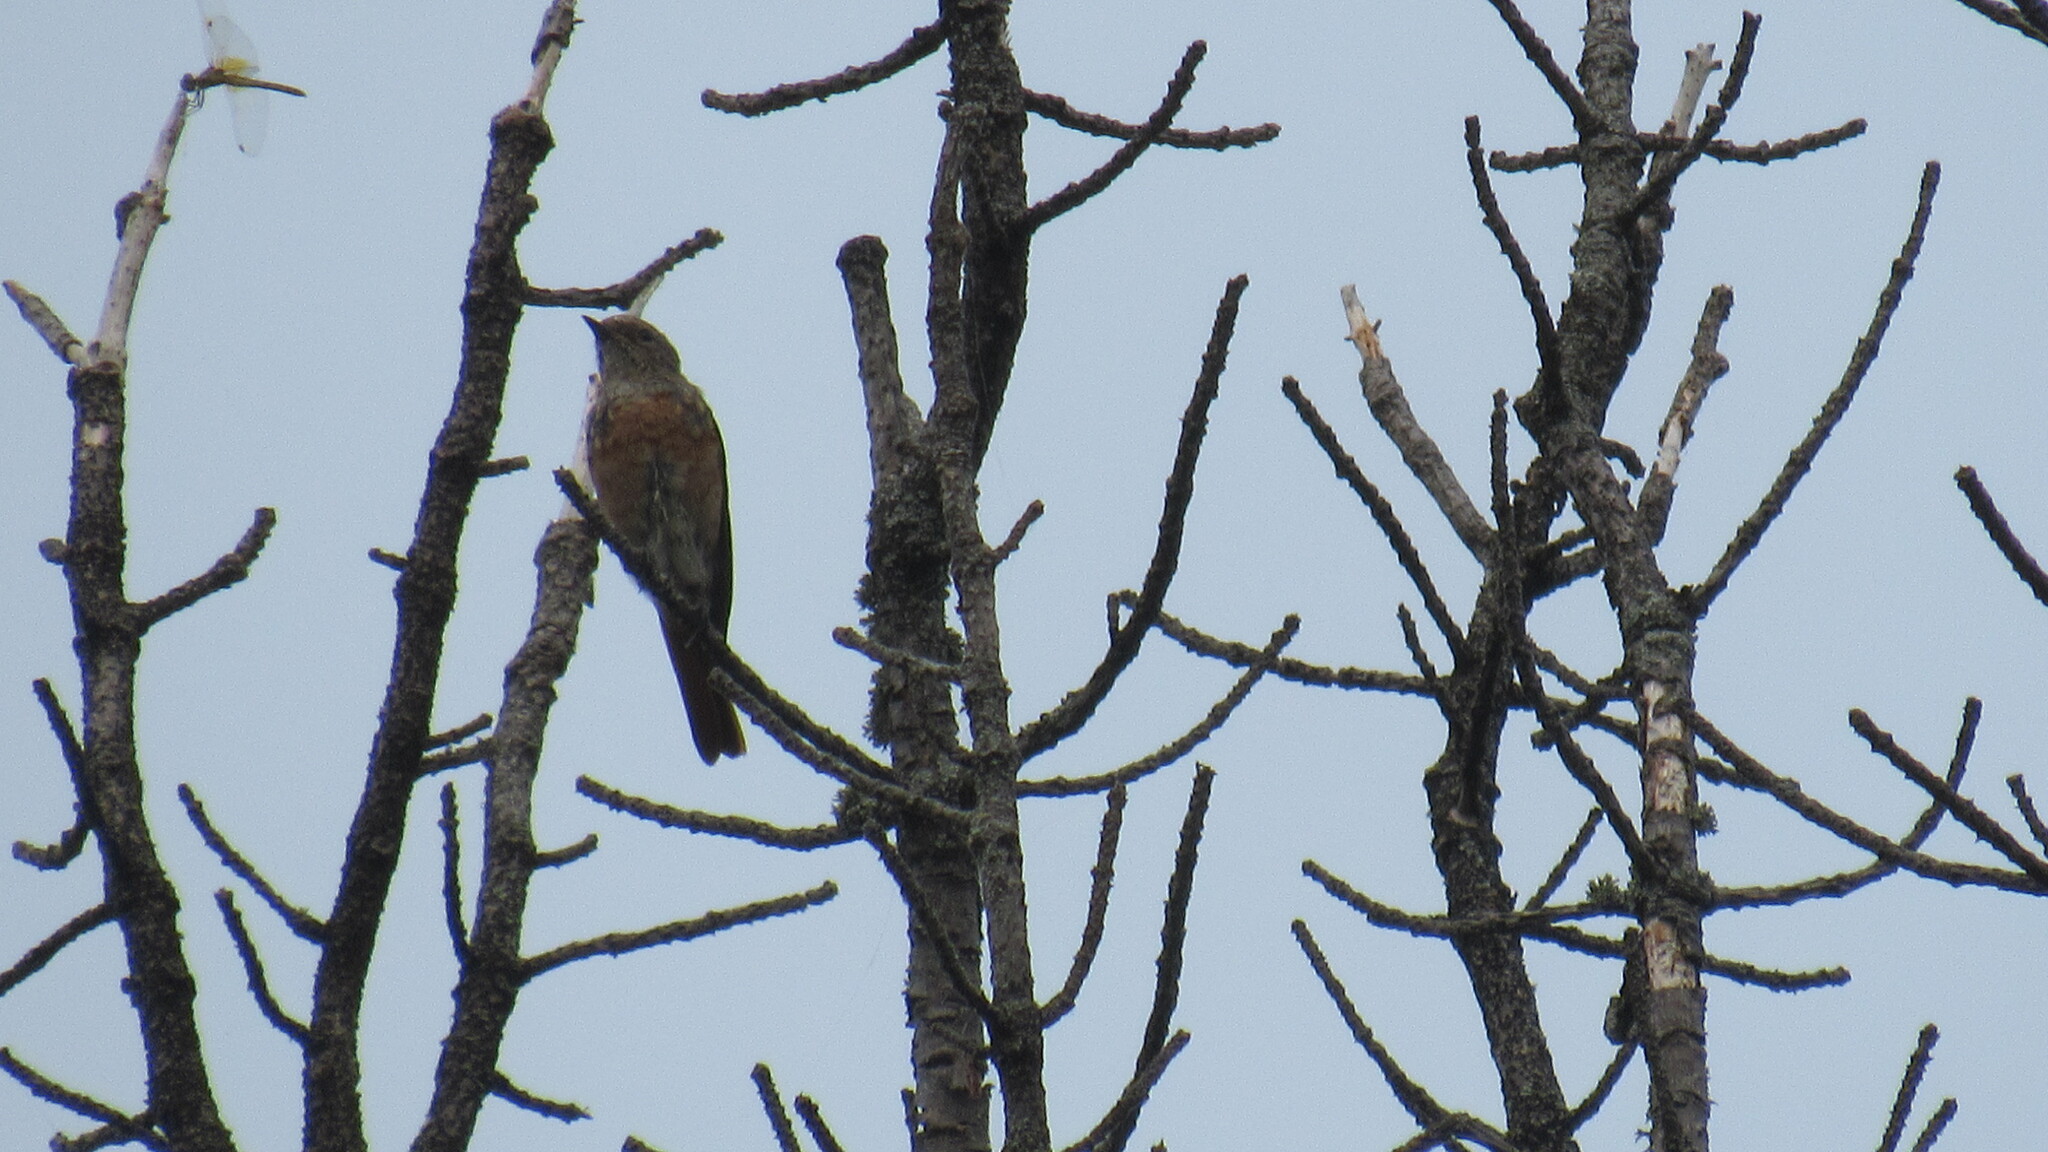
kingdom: Animalia
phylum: Chordata
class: Aves
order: Passeriformes
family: Muscicapidae
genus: Phoenicurus
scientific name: Phoenicurus phoenicurus
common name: Common redstart
